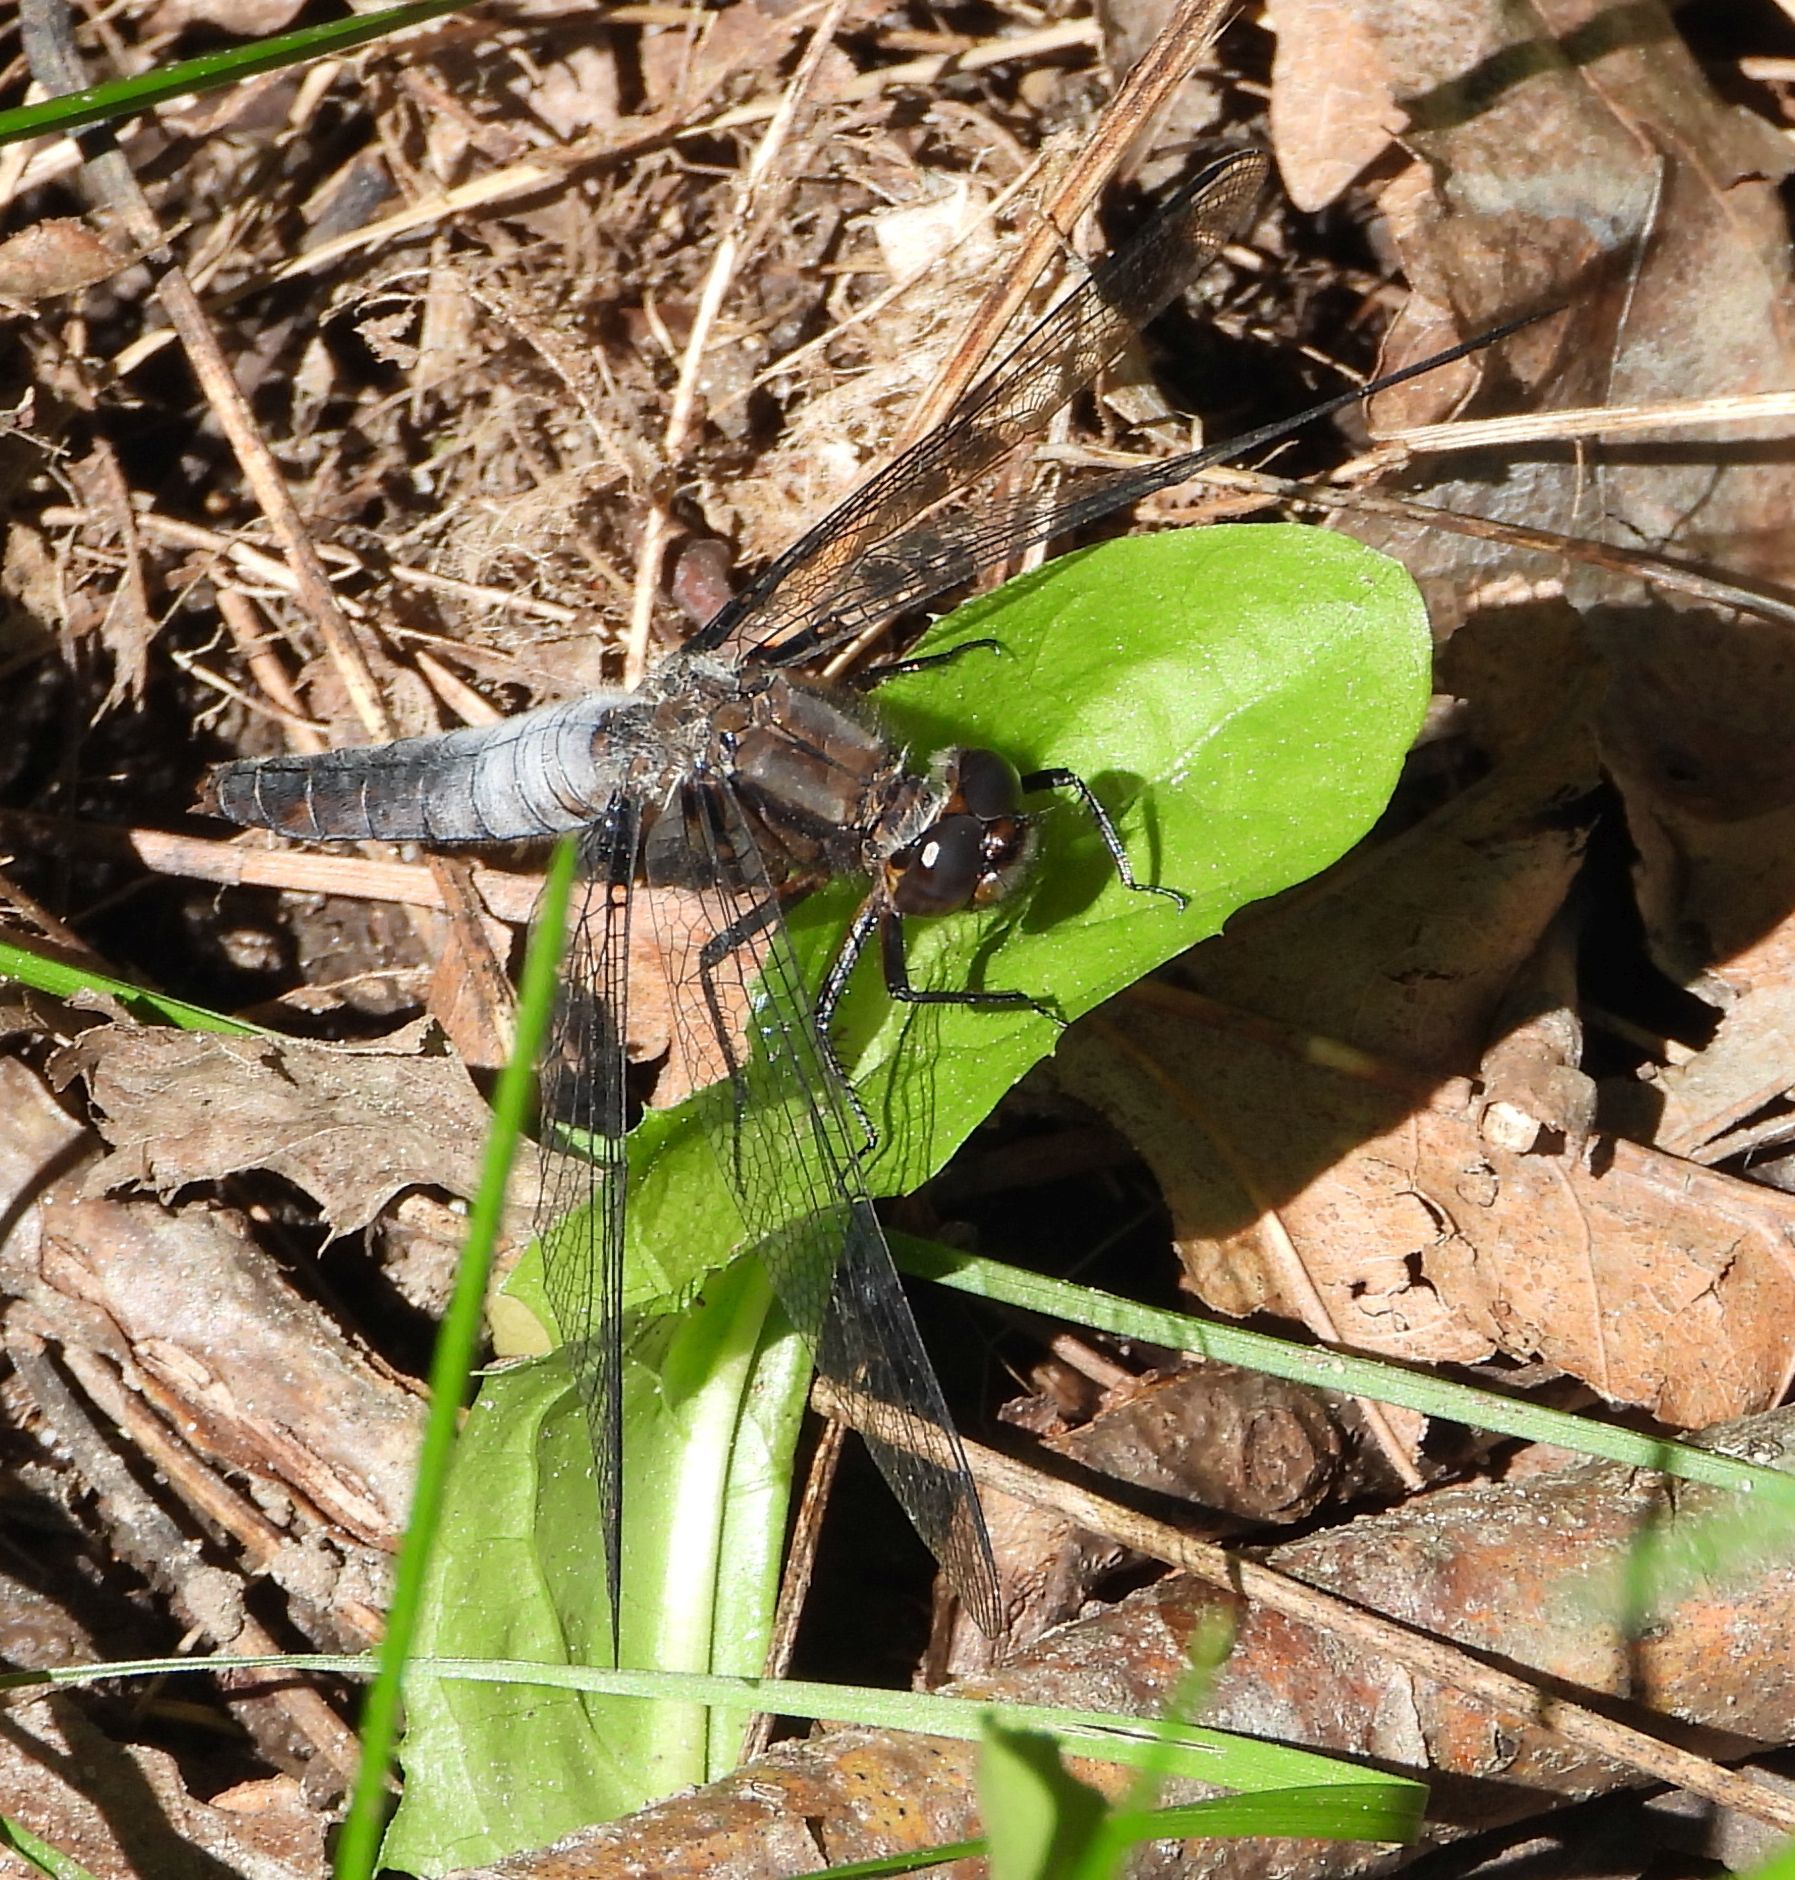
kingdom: Animalia
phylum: Arthropoda
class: Insecta
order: Odonata
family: Libellulidae
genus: Ladona
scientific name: Ladona julia
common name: Chalk-fronted corporal
